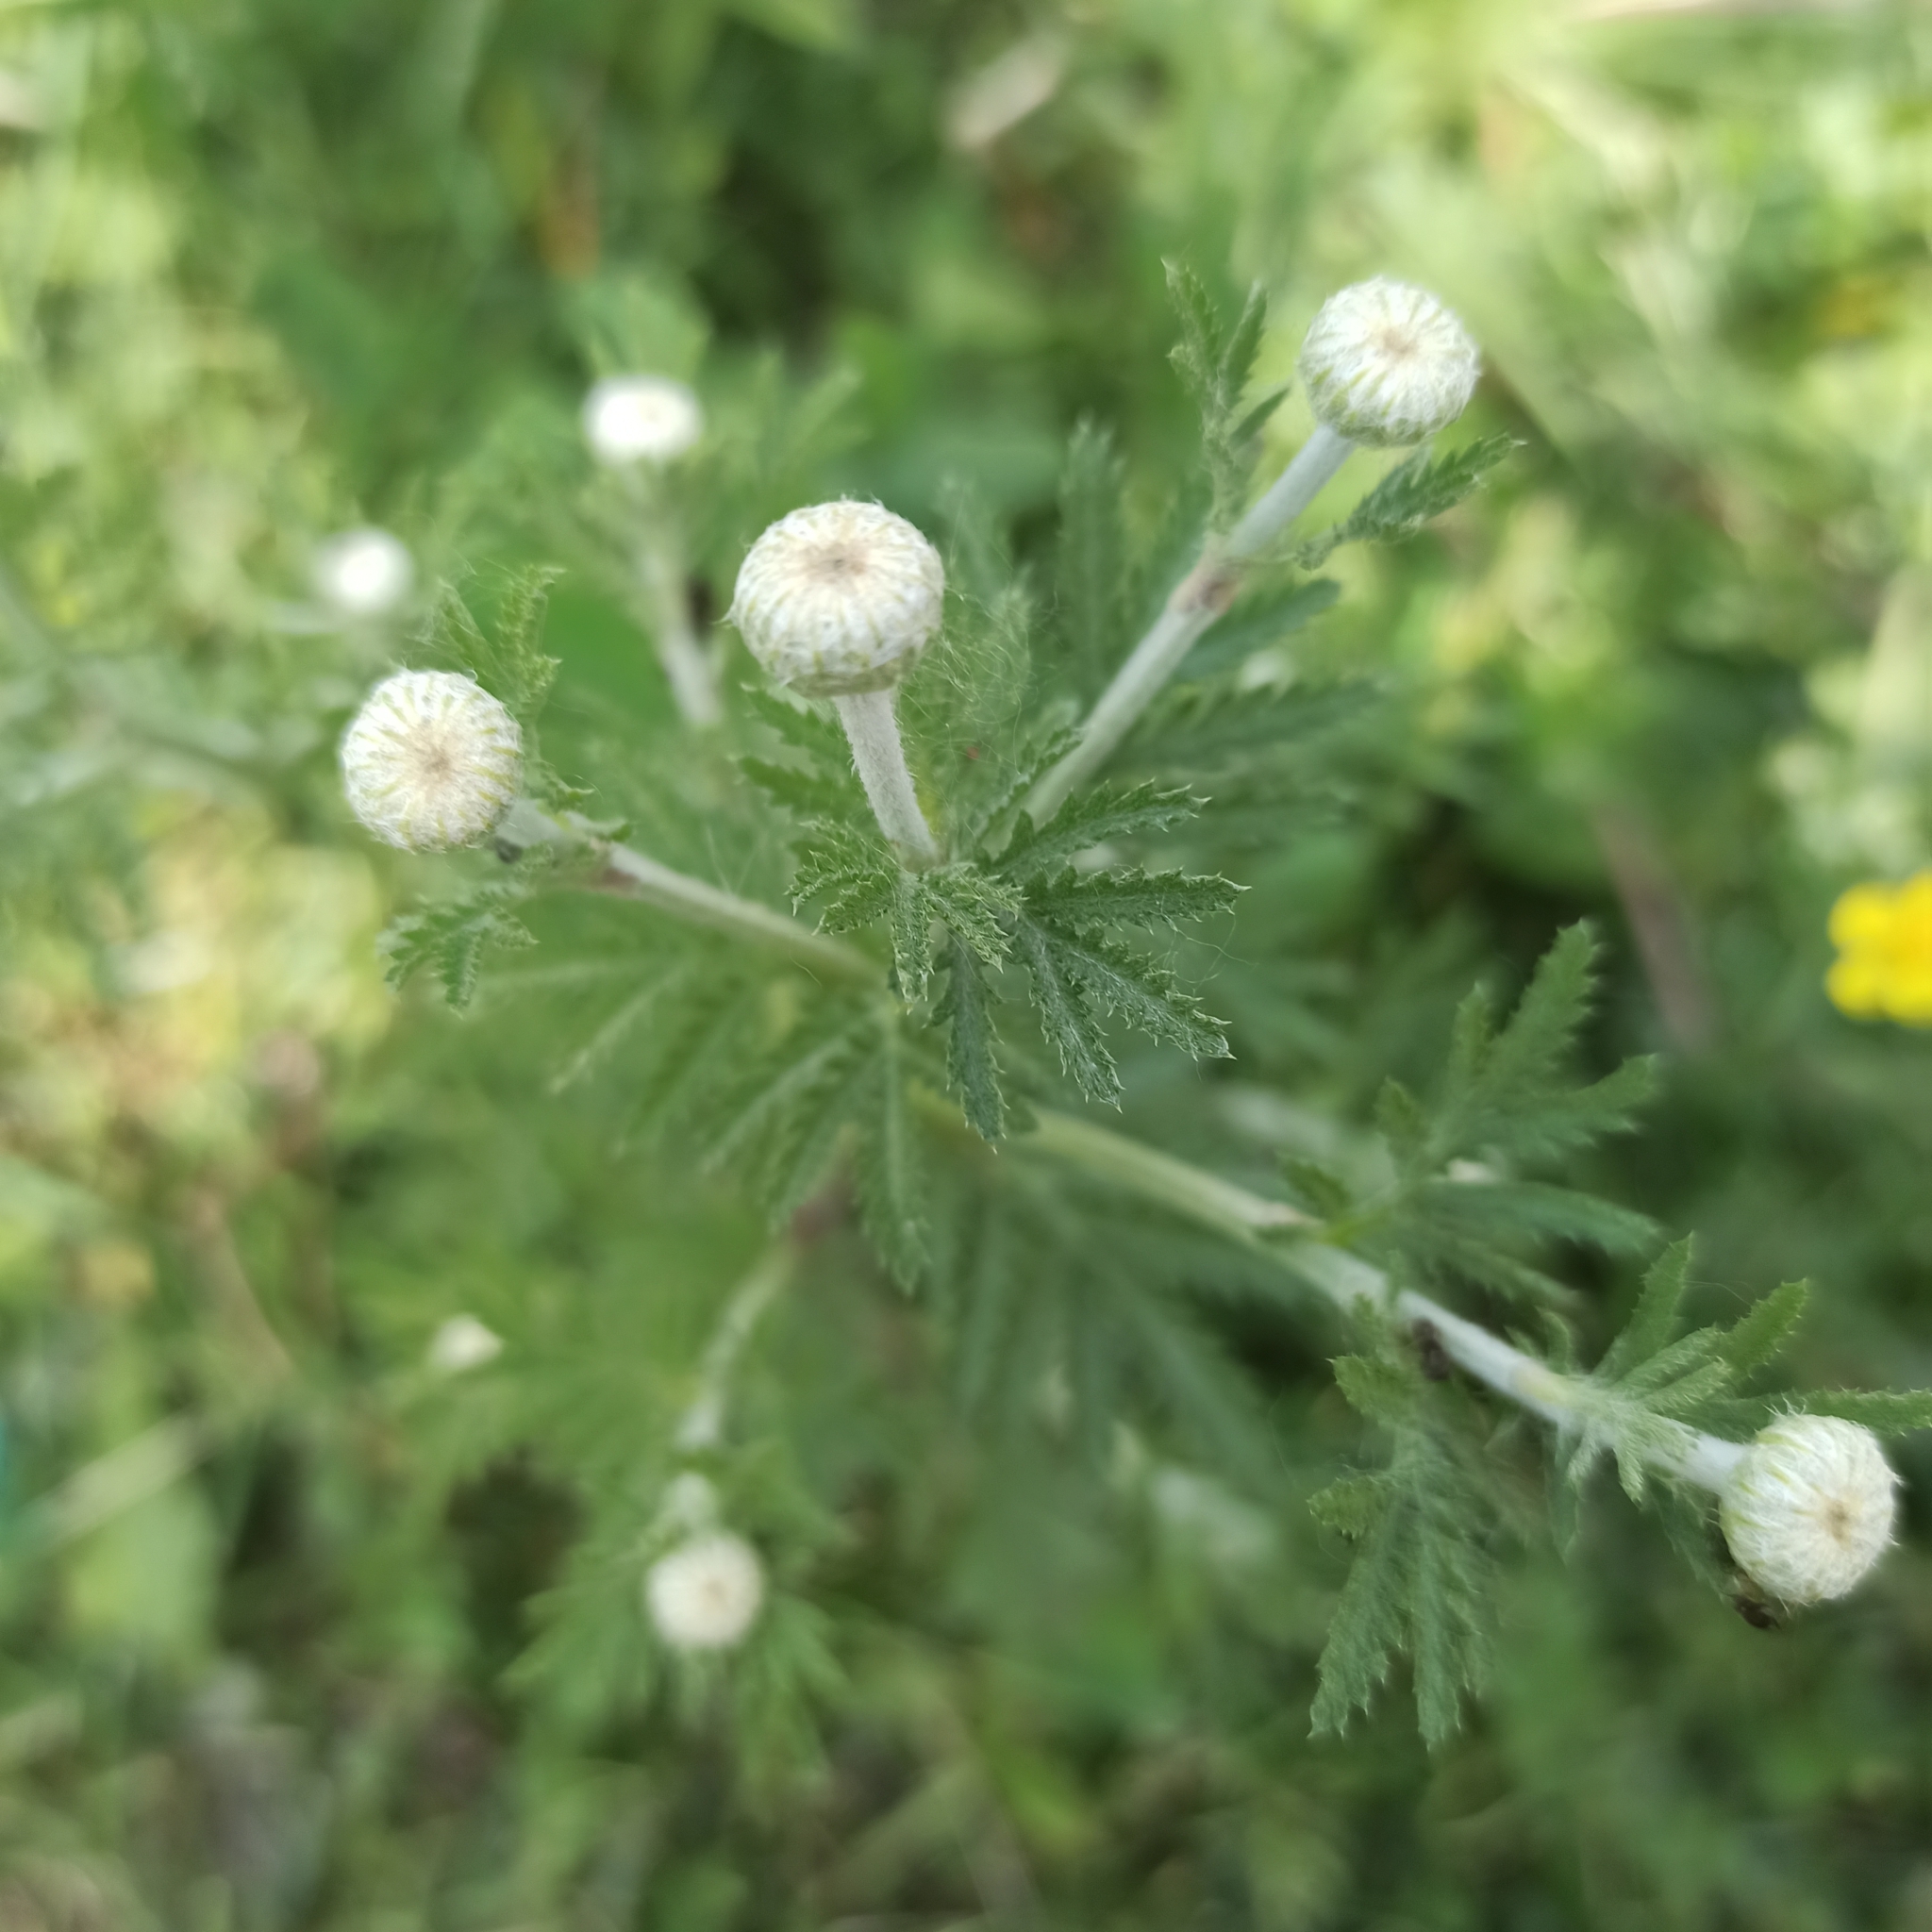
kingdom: Plantae
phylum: Tracheophyta
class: Magnoliopsida
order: Asterales
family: Asteraceae
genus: Cota
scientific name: Cota tinctoria
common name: Golden chamomile
